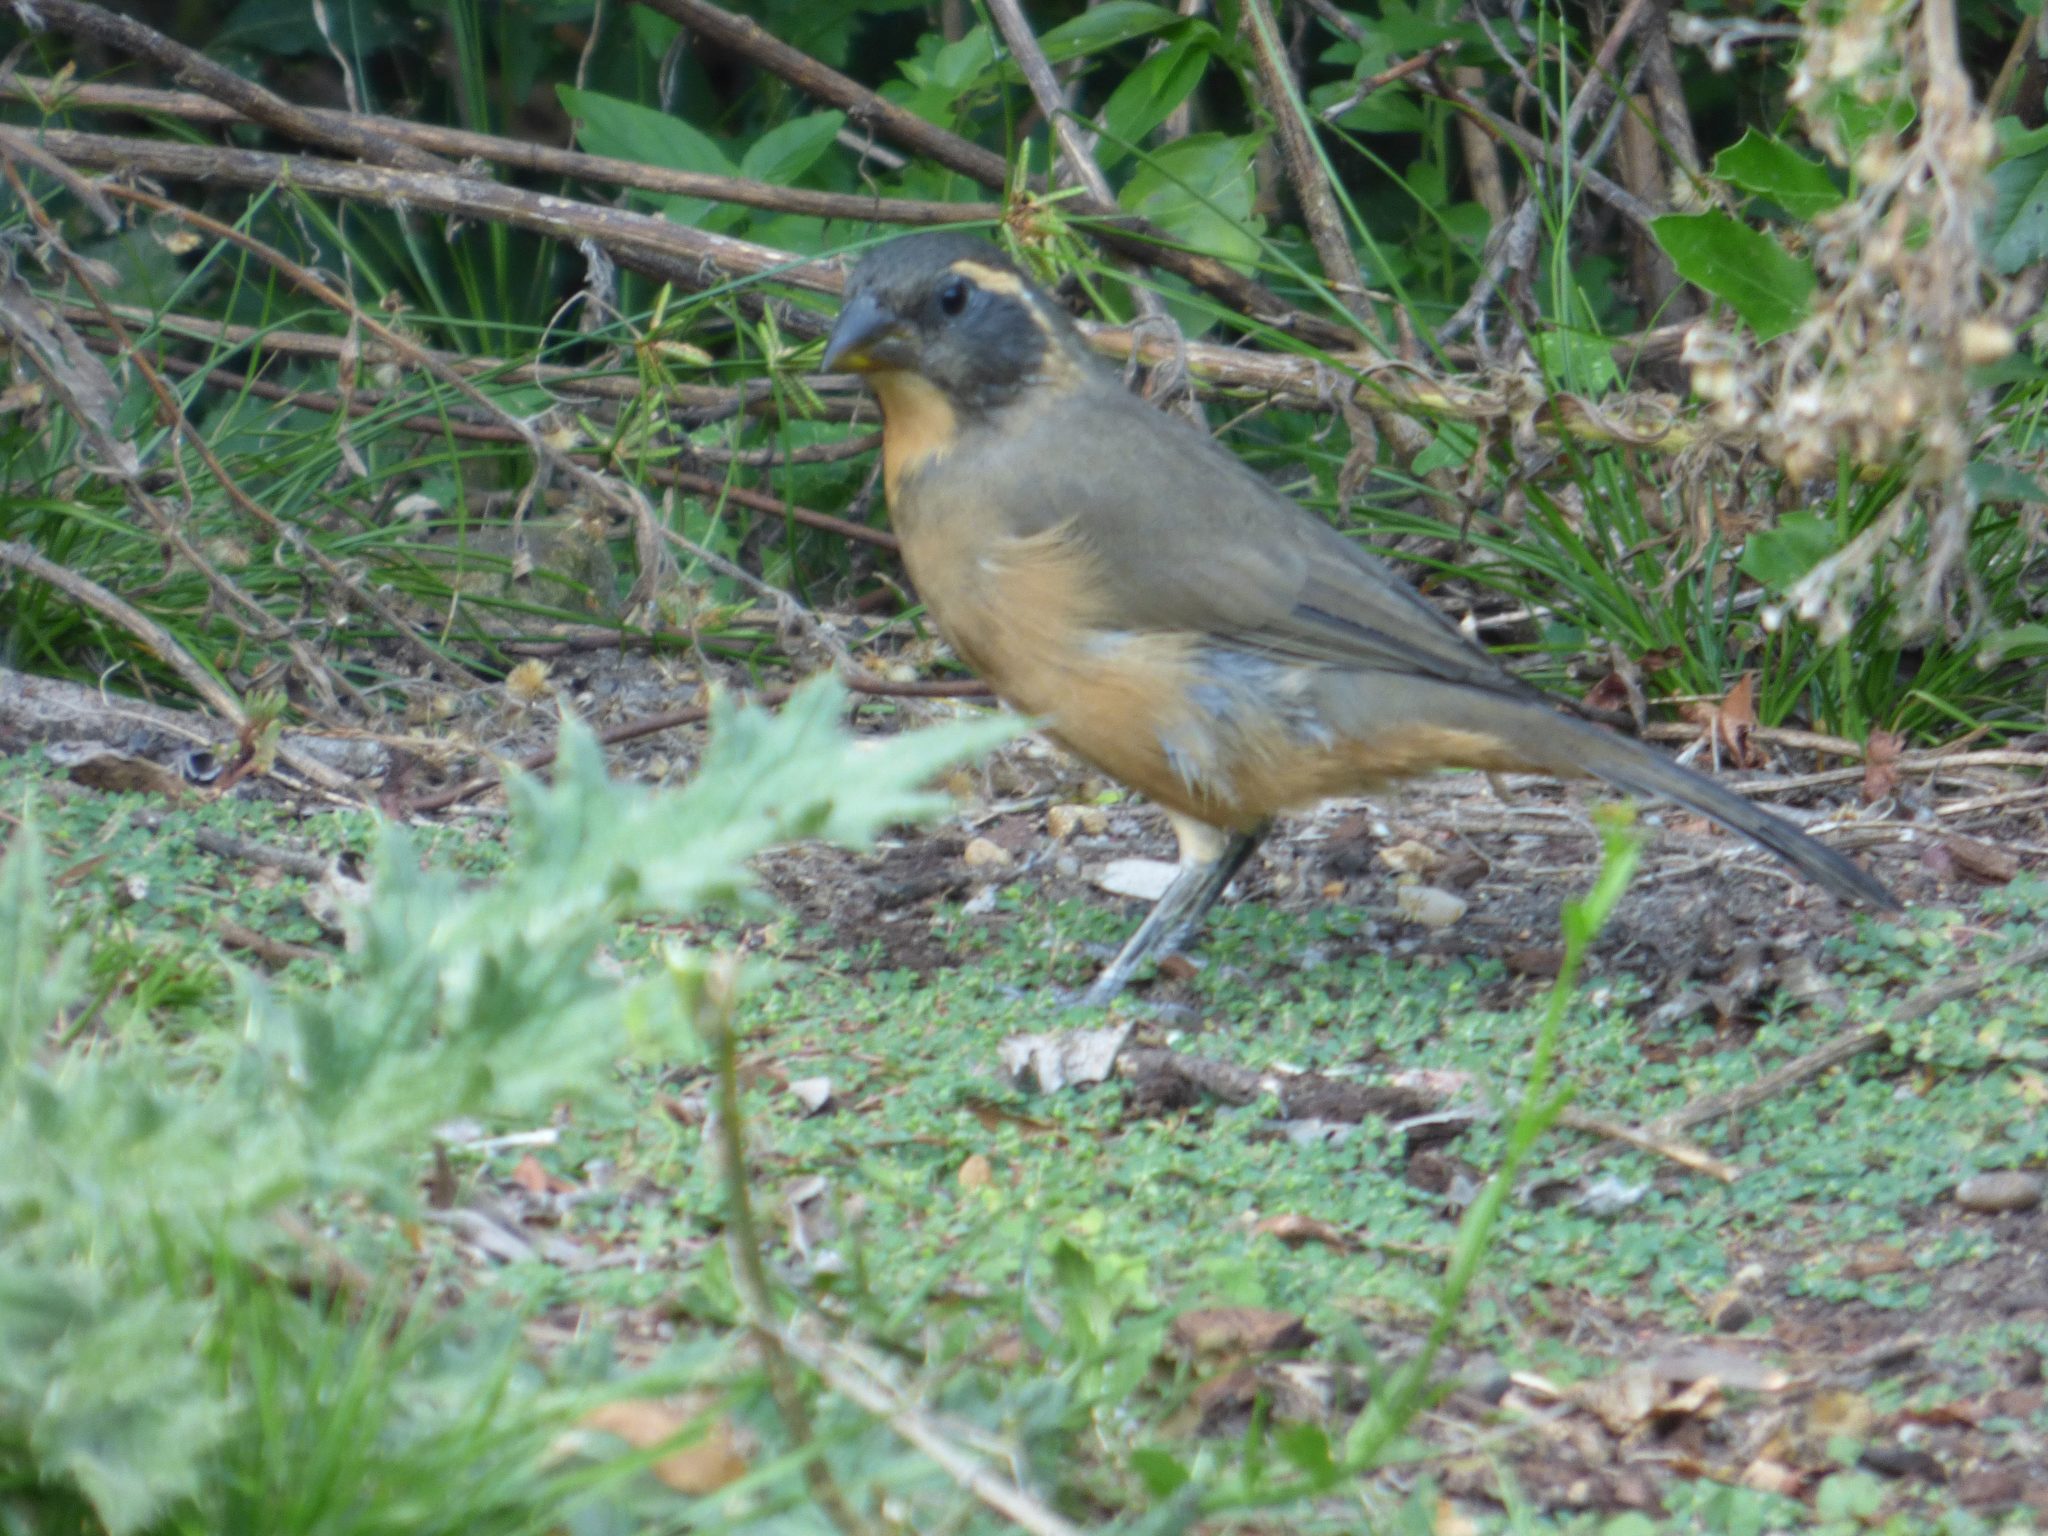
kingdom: Animalia
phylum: Chordata
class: Aves
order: Passeriformes
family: Thraupidae
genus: Saltator
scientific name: Saltator aurantiirostris
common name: Golden-billed saltator
